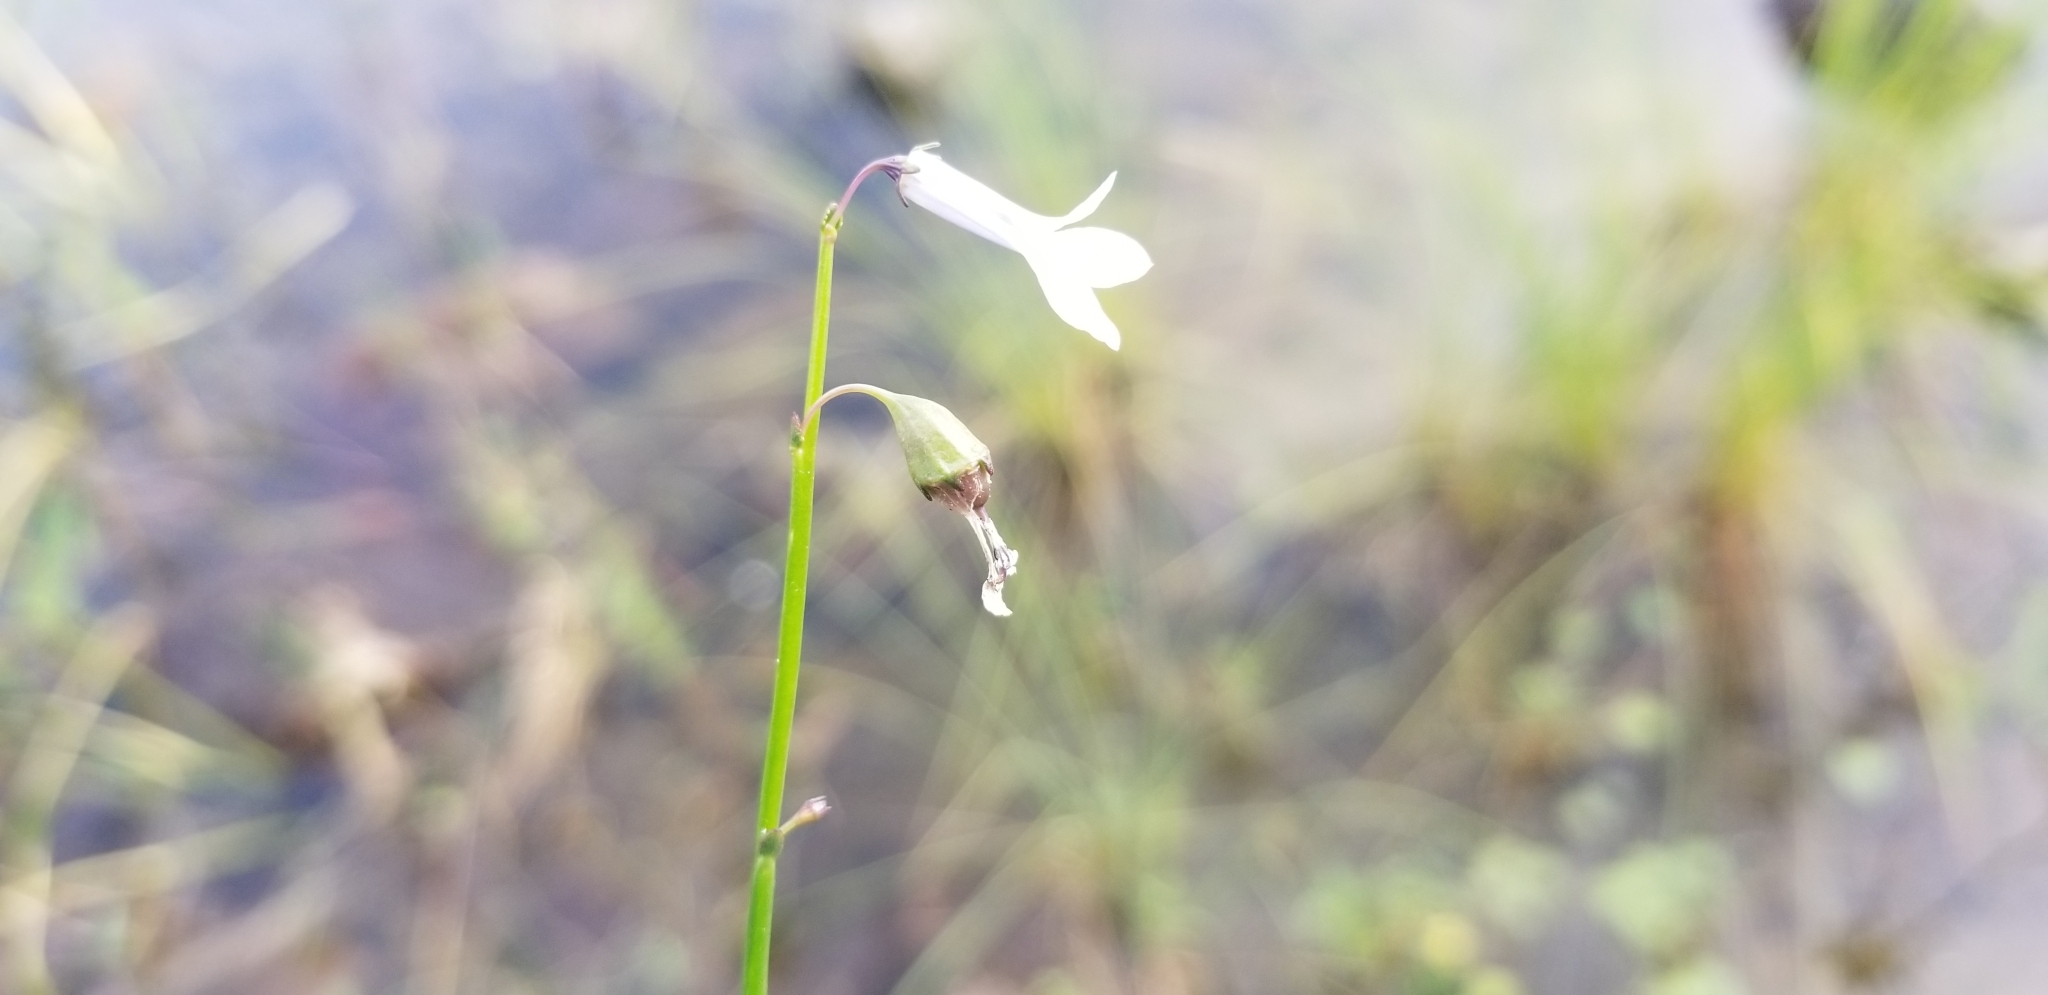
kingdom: Plantae
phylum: Tracheophyta
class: Magnoliopsida
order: Asterales
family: Campanulaceae
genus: Lobelia
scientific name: Lobelia dortmanna
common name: Water lobelia
